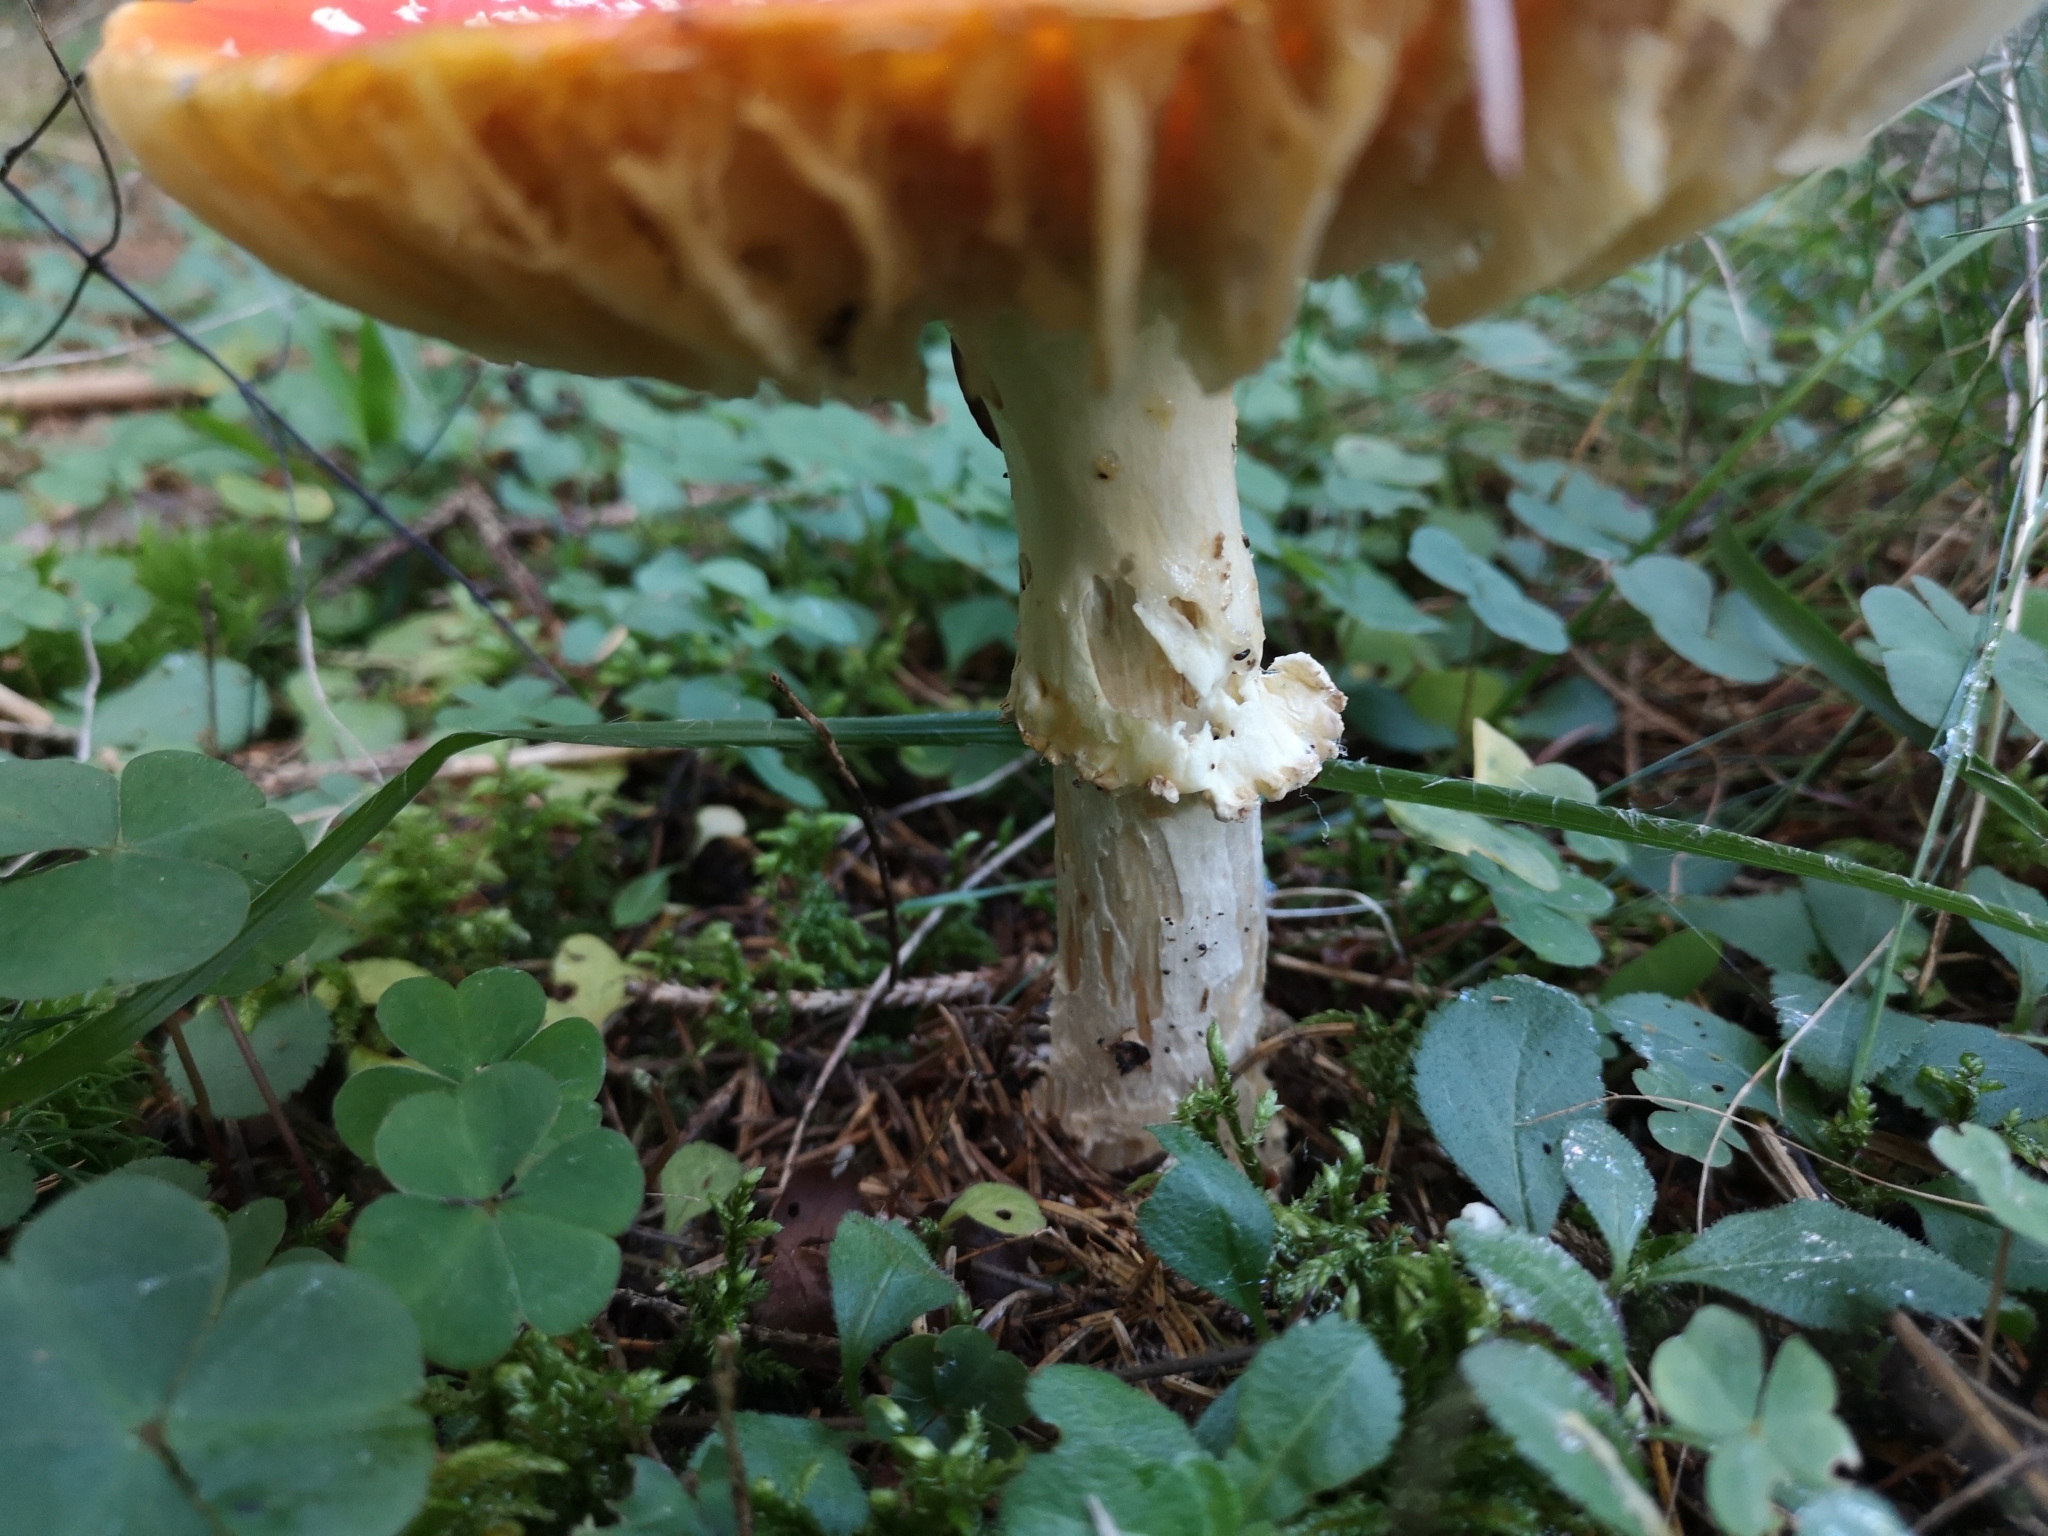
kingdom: Fungi
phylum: Basidiomycota
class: Agaricomycetes
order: Agaricales
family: Amanitaceae
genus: Amanita
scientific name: Amanita muscaria
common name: Fly agaric
